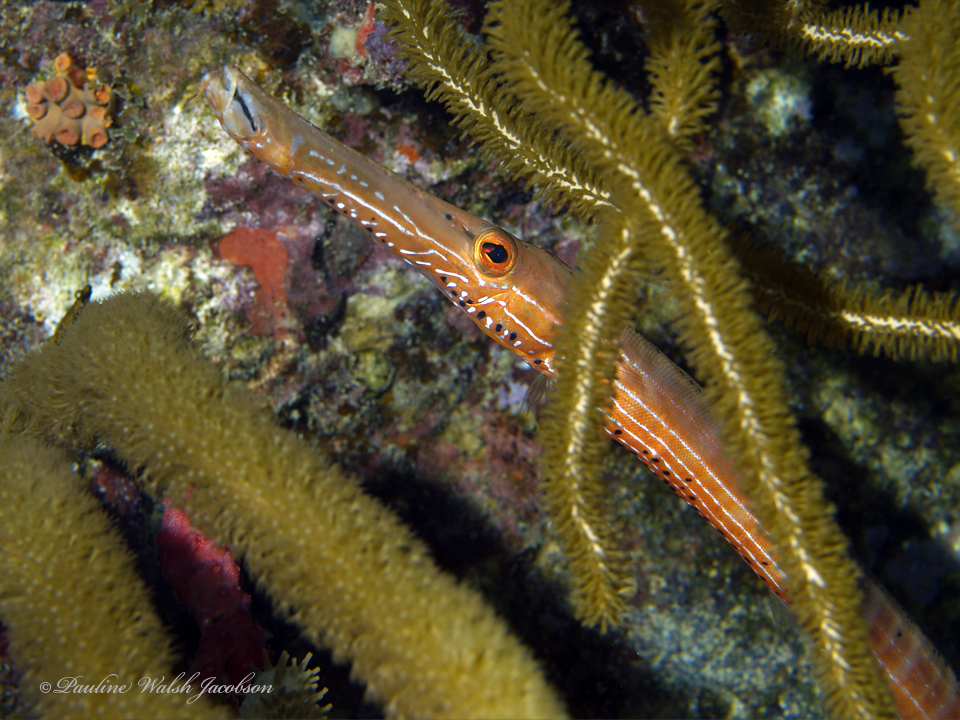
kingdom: Animalia
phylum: Chordata
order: Syngnathiformes
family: Aulostomidae
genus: Aulostomus
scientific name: Aulostomus maculatus
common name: West atlantic trumpetfish
